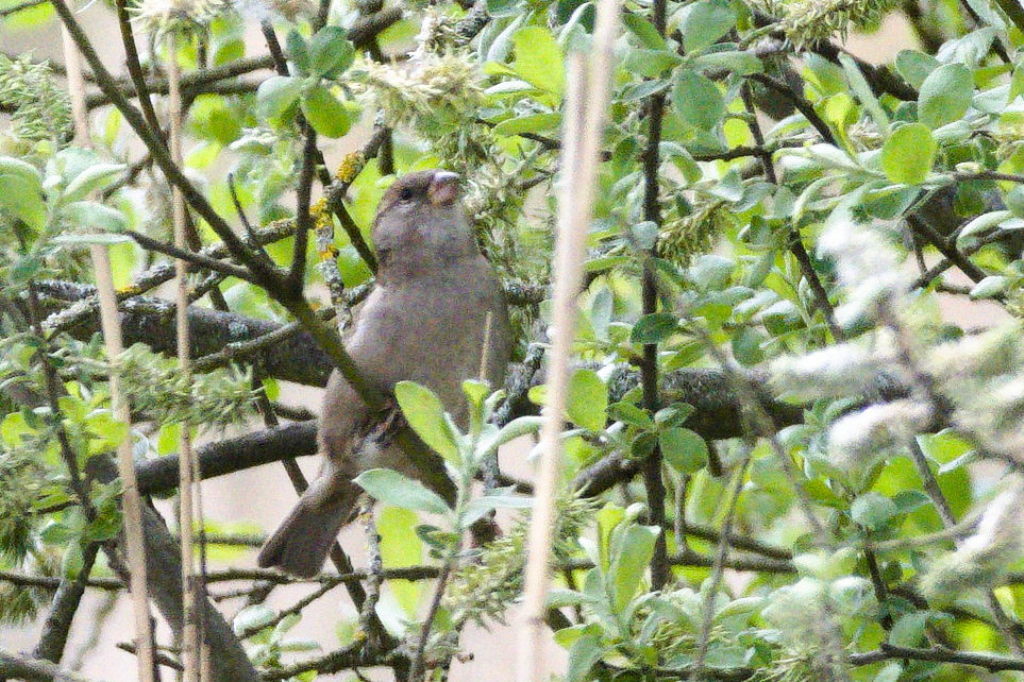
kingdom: Animalia
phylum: Chordata
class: Aves
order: Passeriformes
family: Passeridae
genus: Passer
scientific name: Passer domesticus
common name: House sparrow
